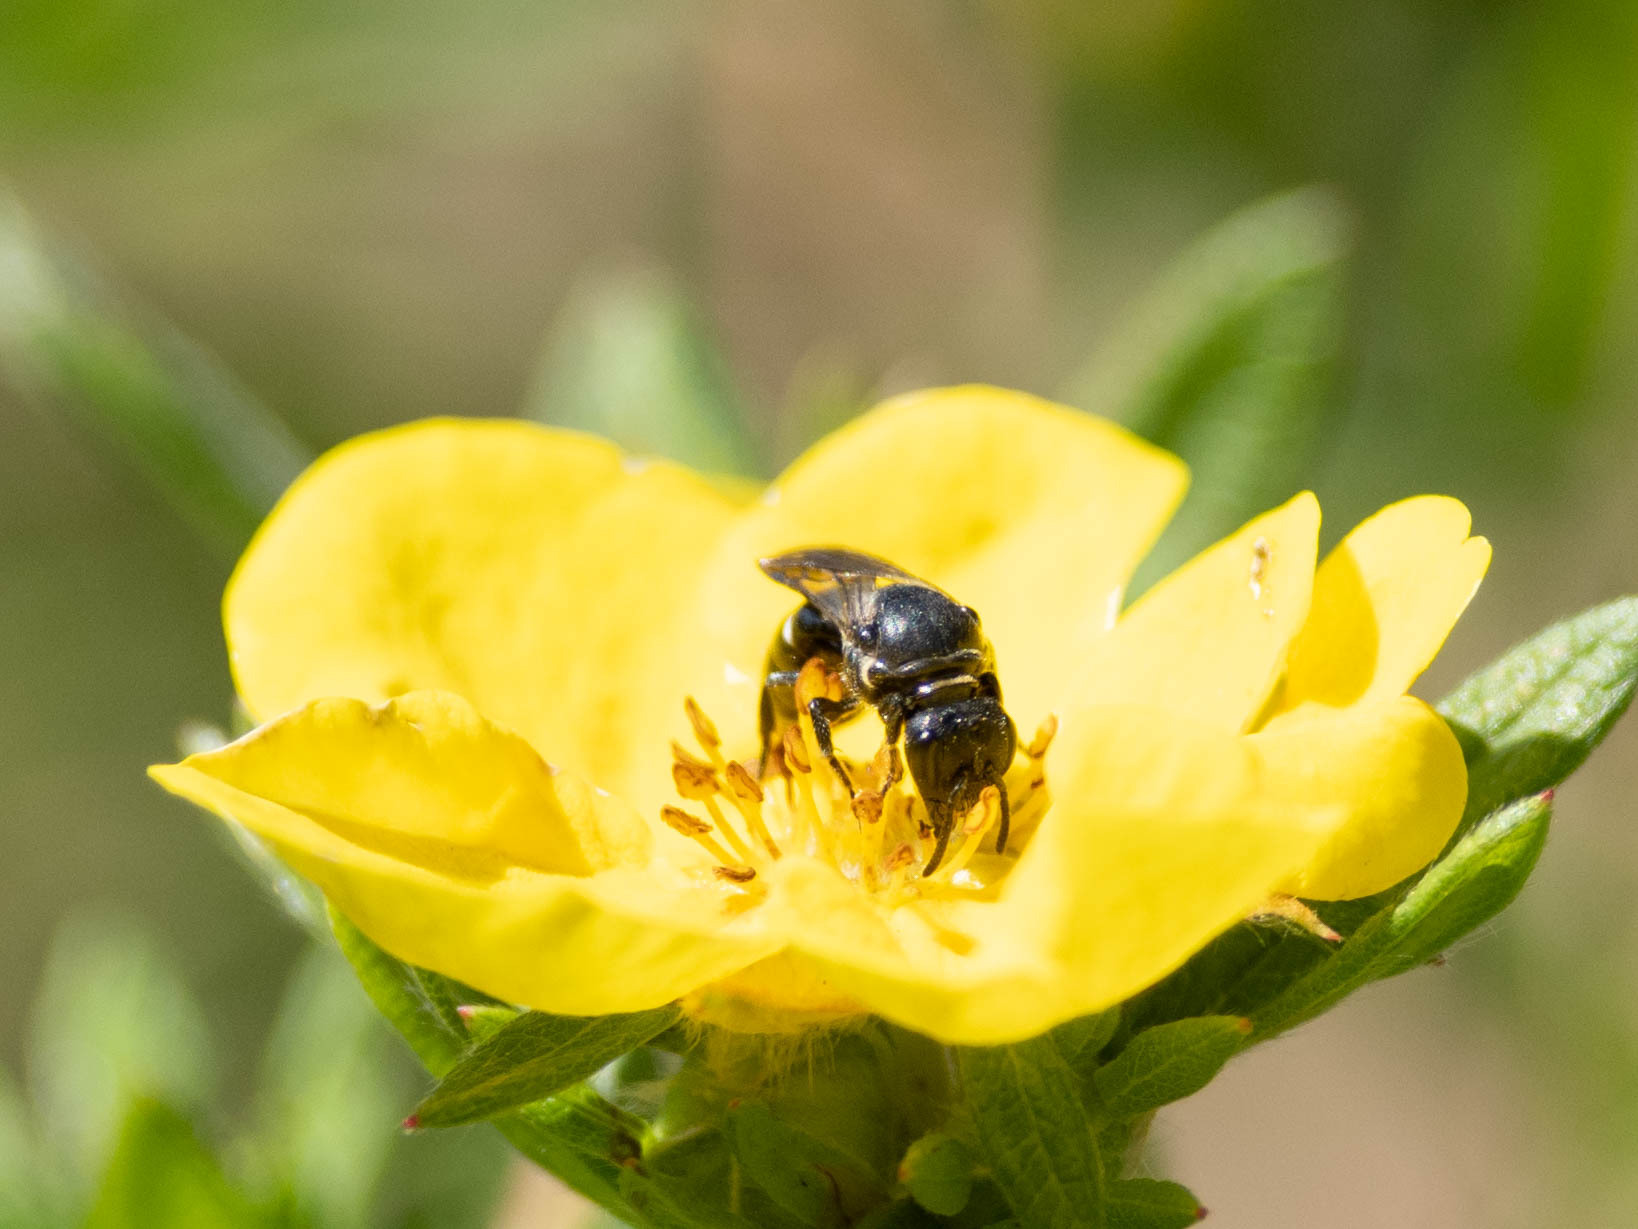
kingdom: Animalia
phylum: Arthropoda
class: Insecta
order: Hymenoptera
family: Colletidae
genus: Hylaeus
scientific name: Hylaeus basalis
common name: Cinquefoil masked bee
